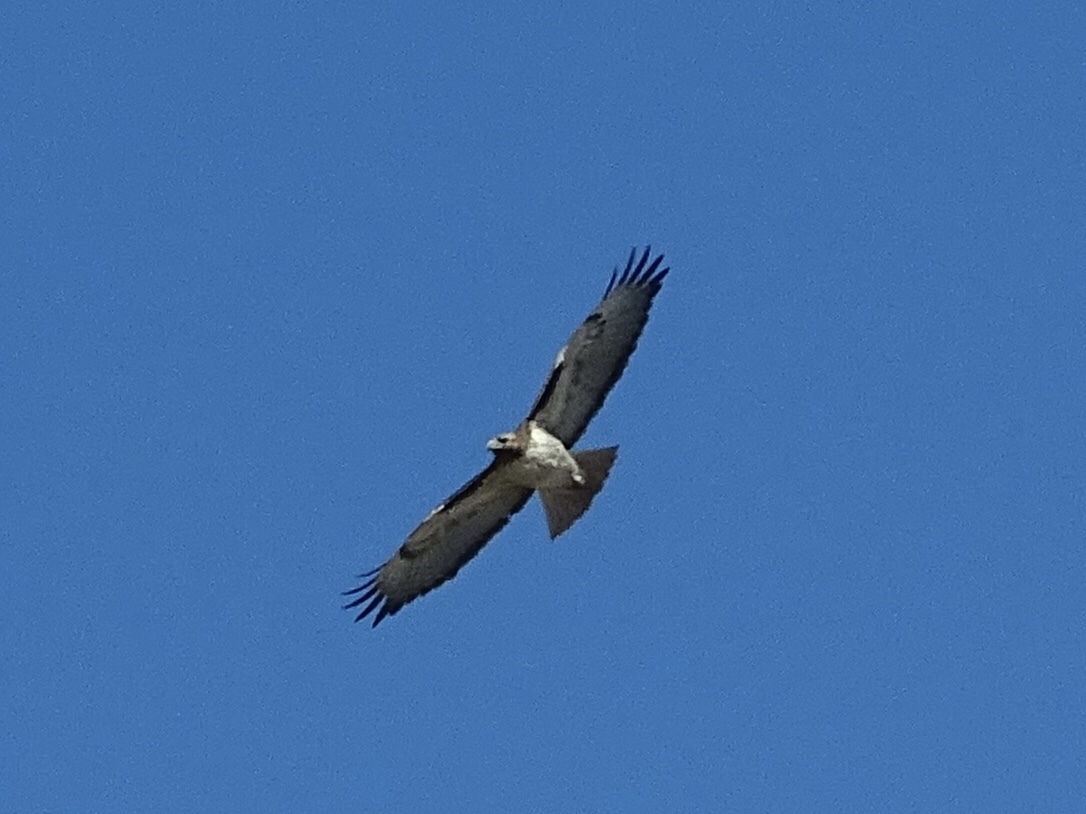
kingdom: Animalia
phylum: Chordata
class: Aves
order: Accipitriformes
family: Accipitridae
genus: Buteo
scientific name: Buteo jamaicensis
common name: Red-tailed hawk
